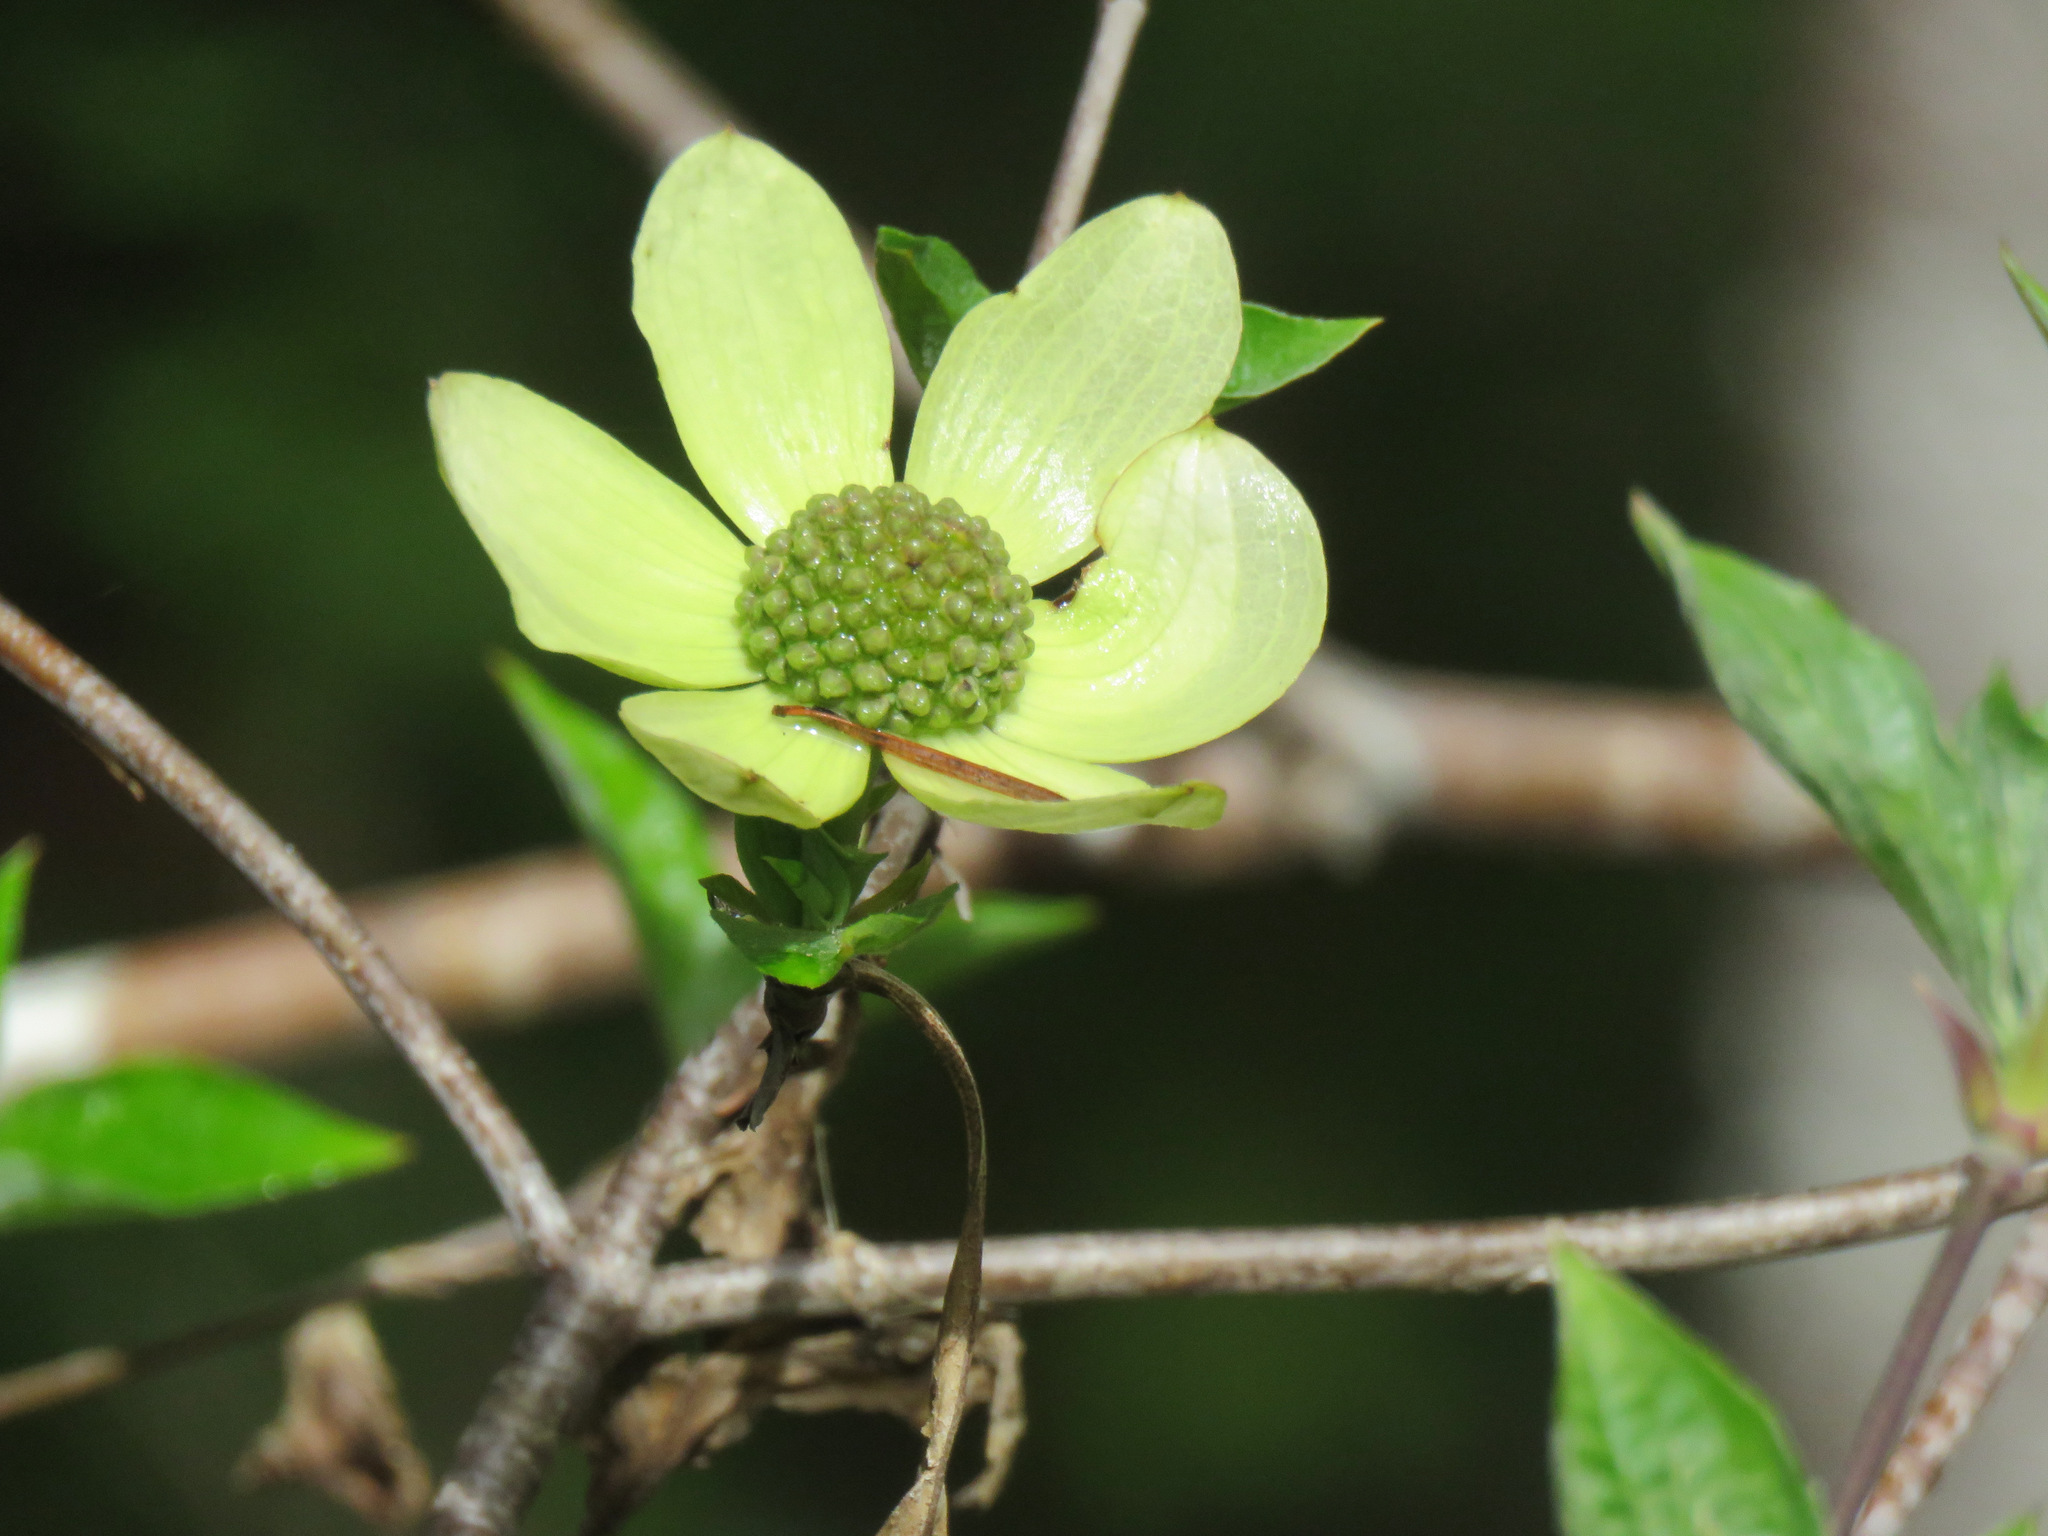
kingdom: Plantae
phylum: Tracheophyta
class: Magnoliopsida
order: Cornales
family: Cornaceae
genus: Cornus
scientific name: Cornus nuttallii
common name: Pacific dogwood
